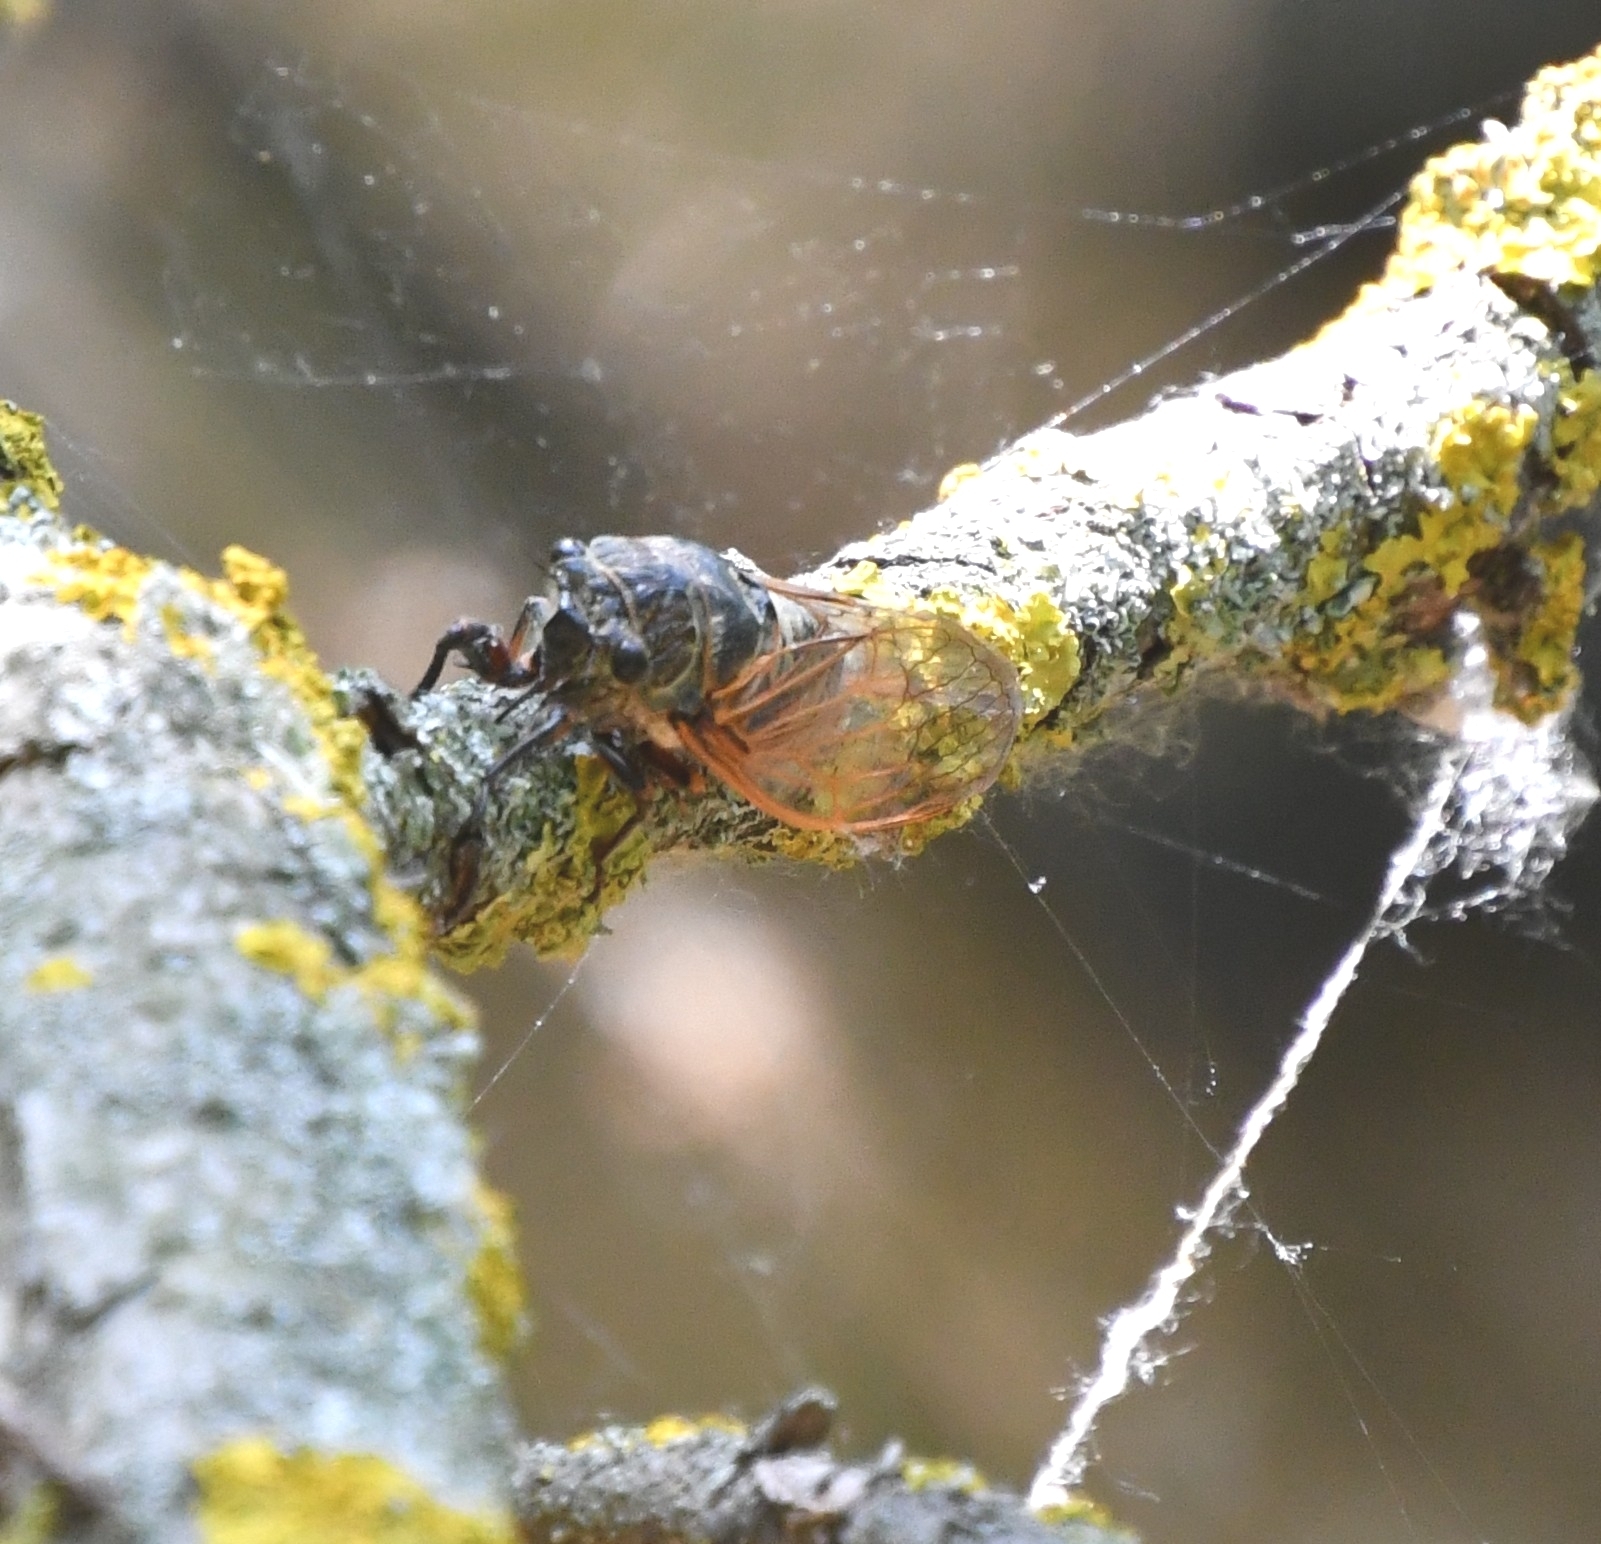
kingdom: Animalia
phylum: Arthropoda
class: Insecta
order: Hemiptera
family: Cicadidae
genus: Tibicina
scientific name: Tibicina haematodes
